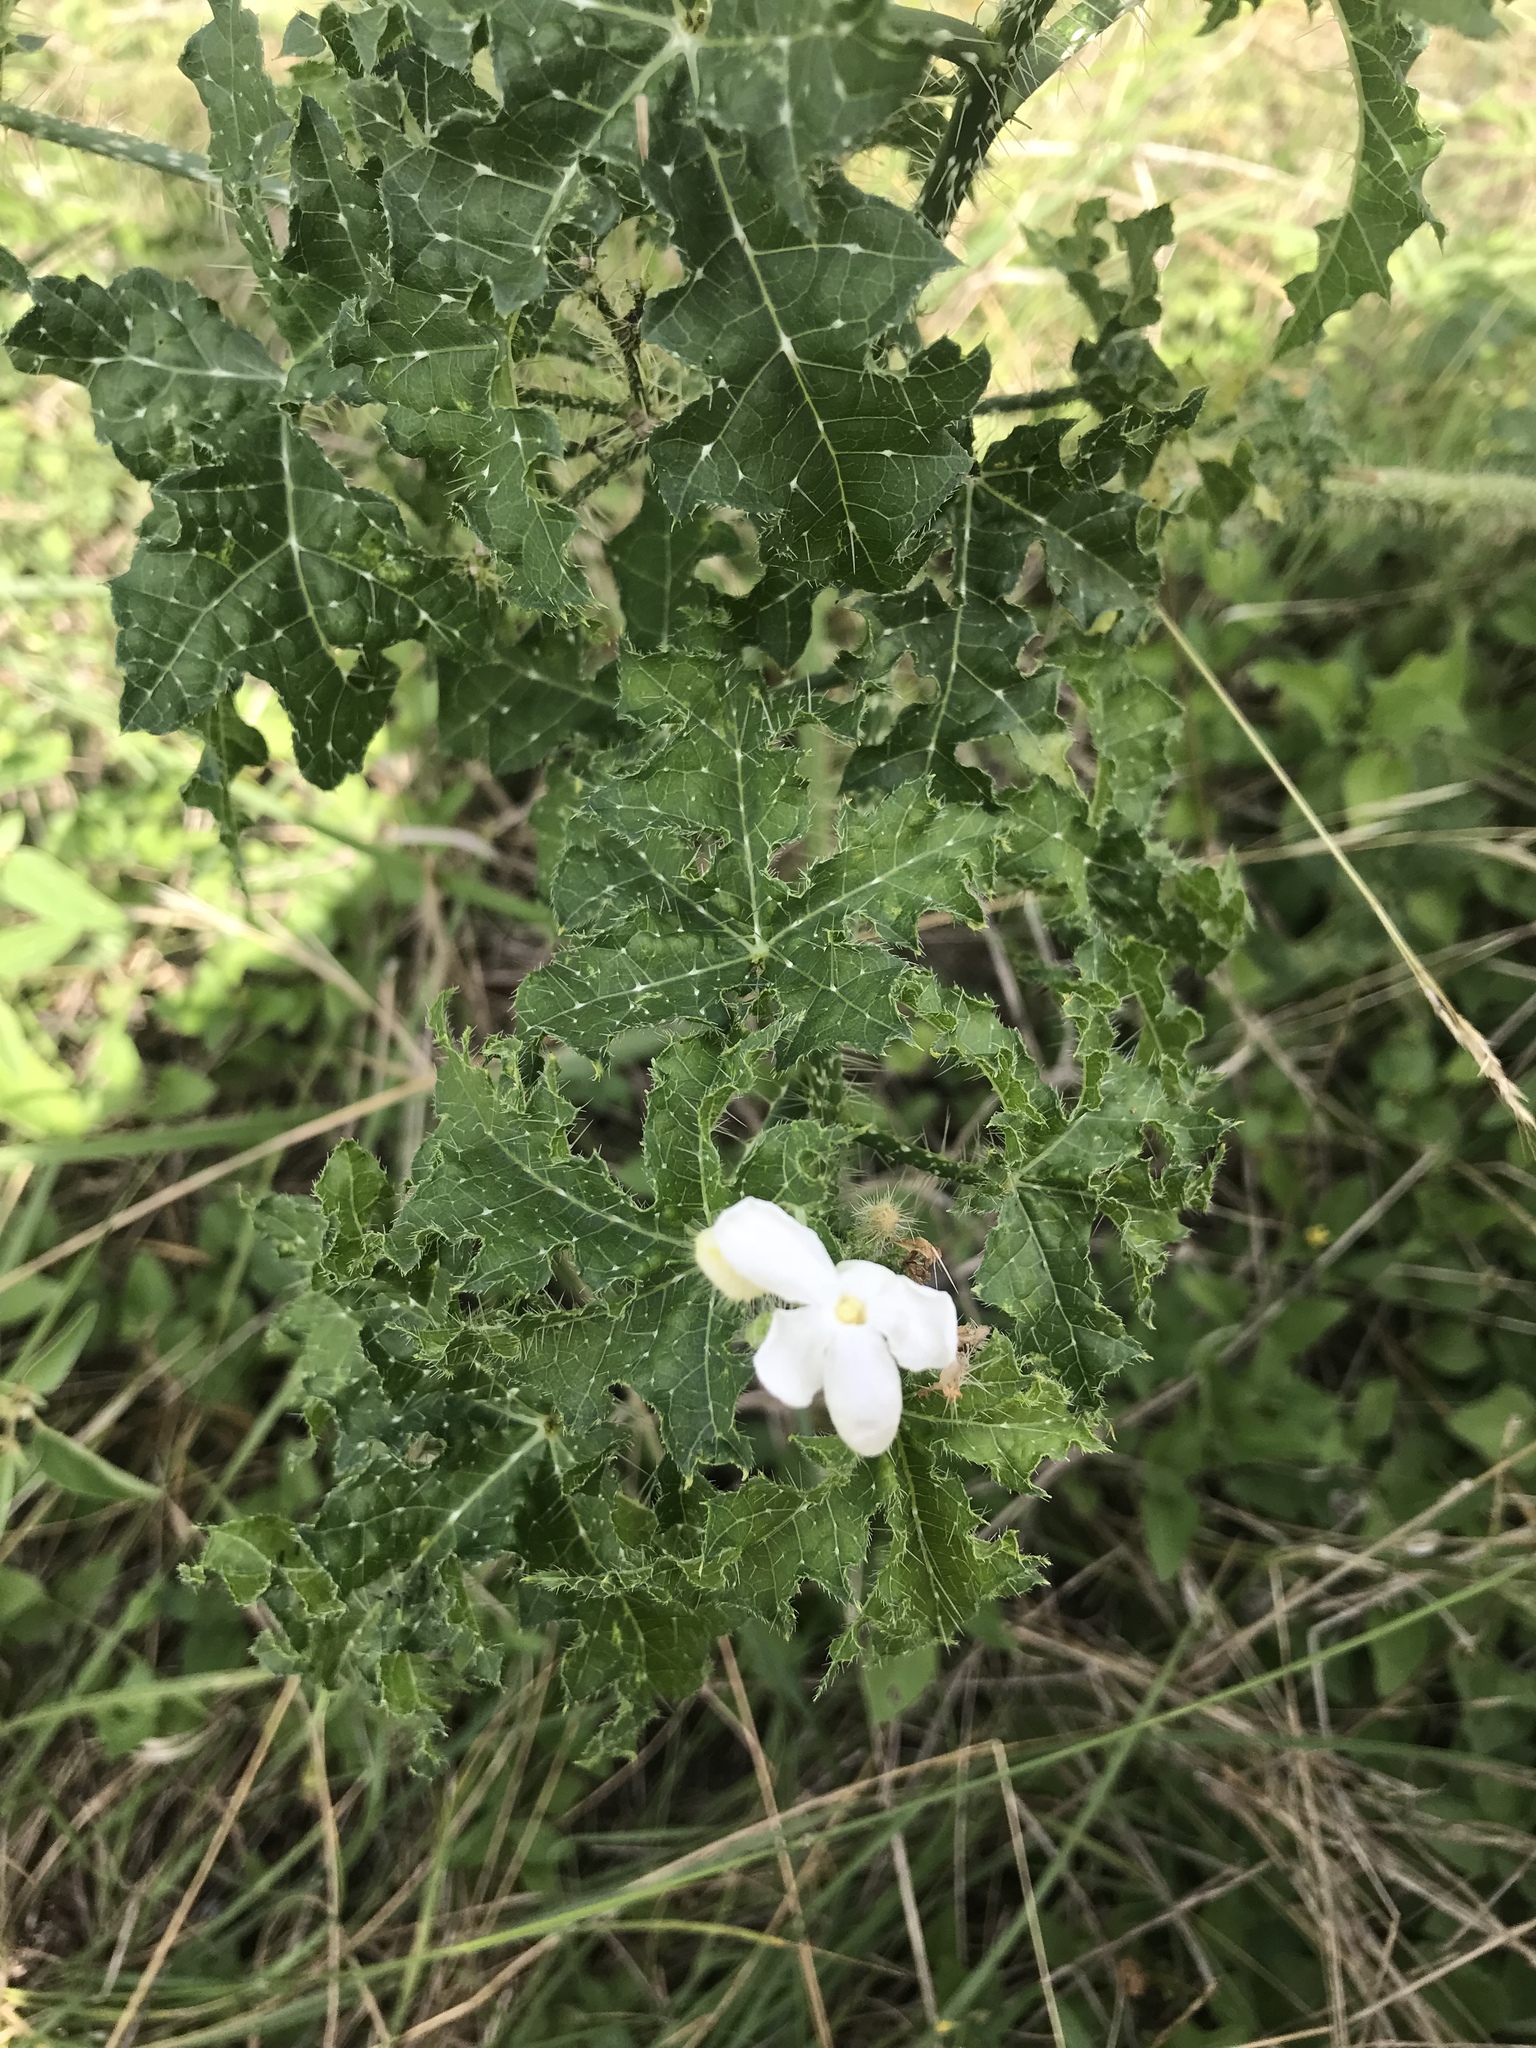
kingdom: Plantae
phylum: Tracheophyta
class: Magnoliopsida
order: Malpighiales
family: Euphorbiaceae
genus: Cnidoscolus
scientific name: Cnidoscolus texanus
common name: Texas bull-nettle
